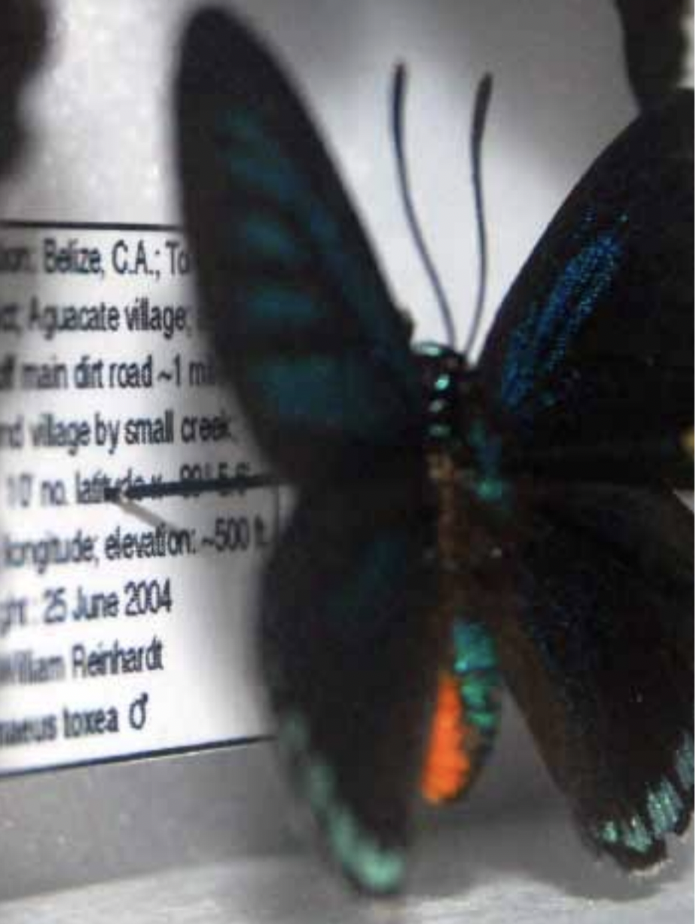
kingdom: Animalia
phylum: Arthropoda
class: Insecta
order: Lepidoptera
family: Lycaenidae
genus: Eumaeus
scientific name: Eumaeus toxea
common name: Mexican cycadian
